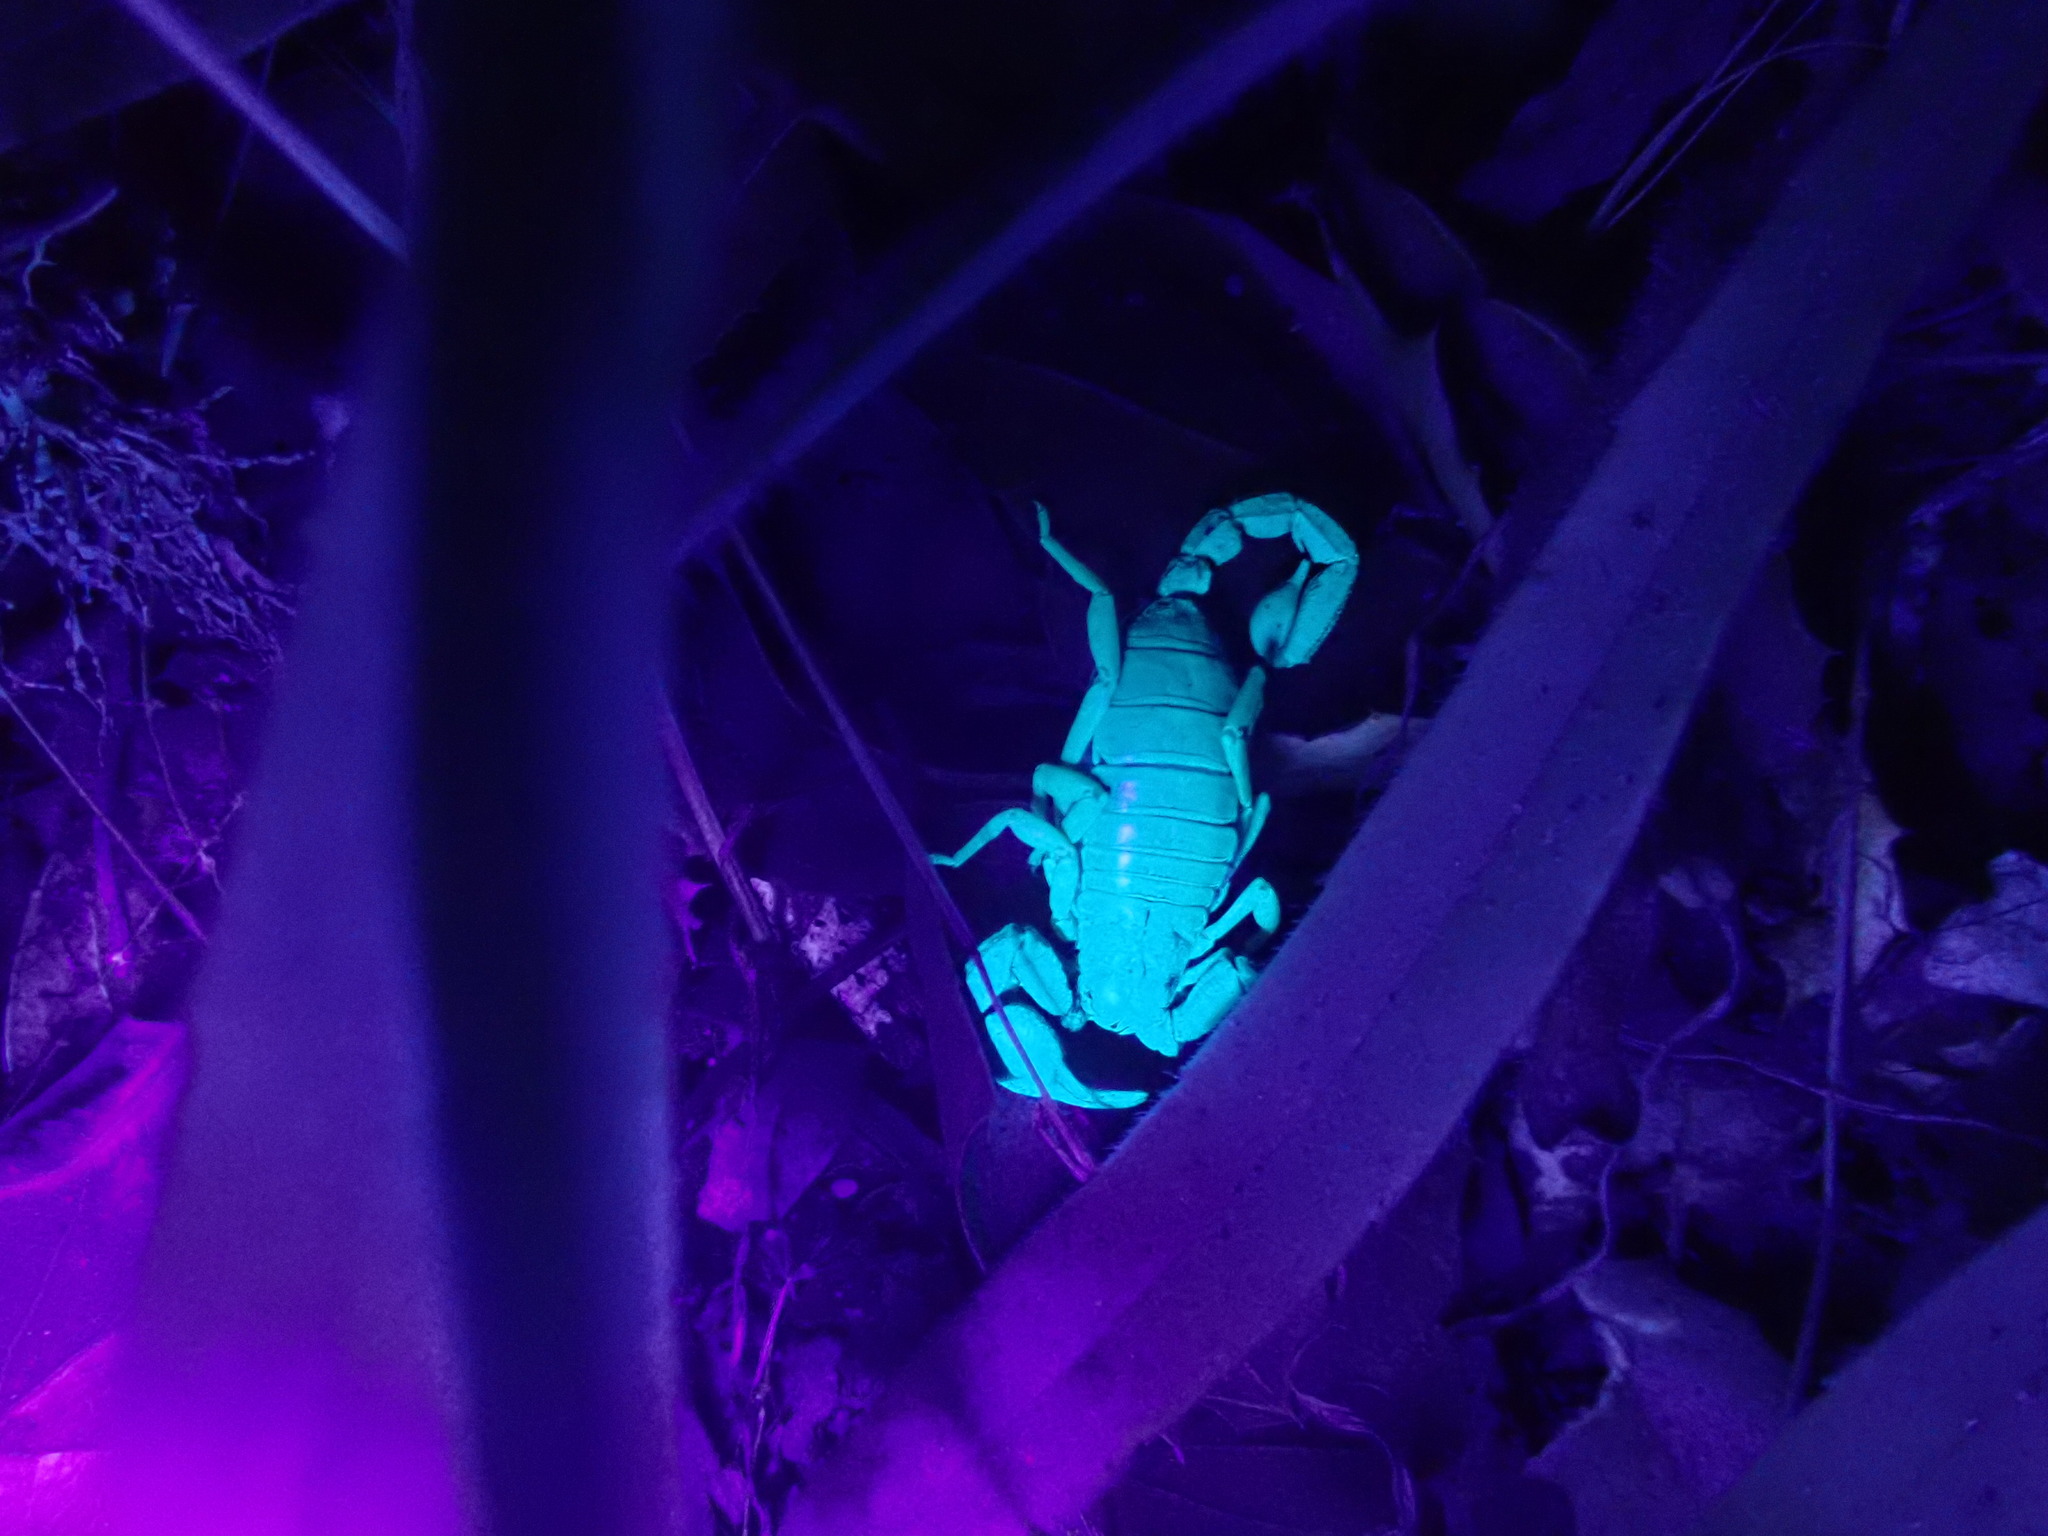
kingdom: Animalia
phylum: Arthropoda
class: Arachnida
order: Scorpiones
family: Chactidae
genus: Uroctonus
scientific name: Uroctonus mordax
